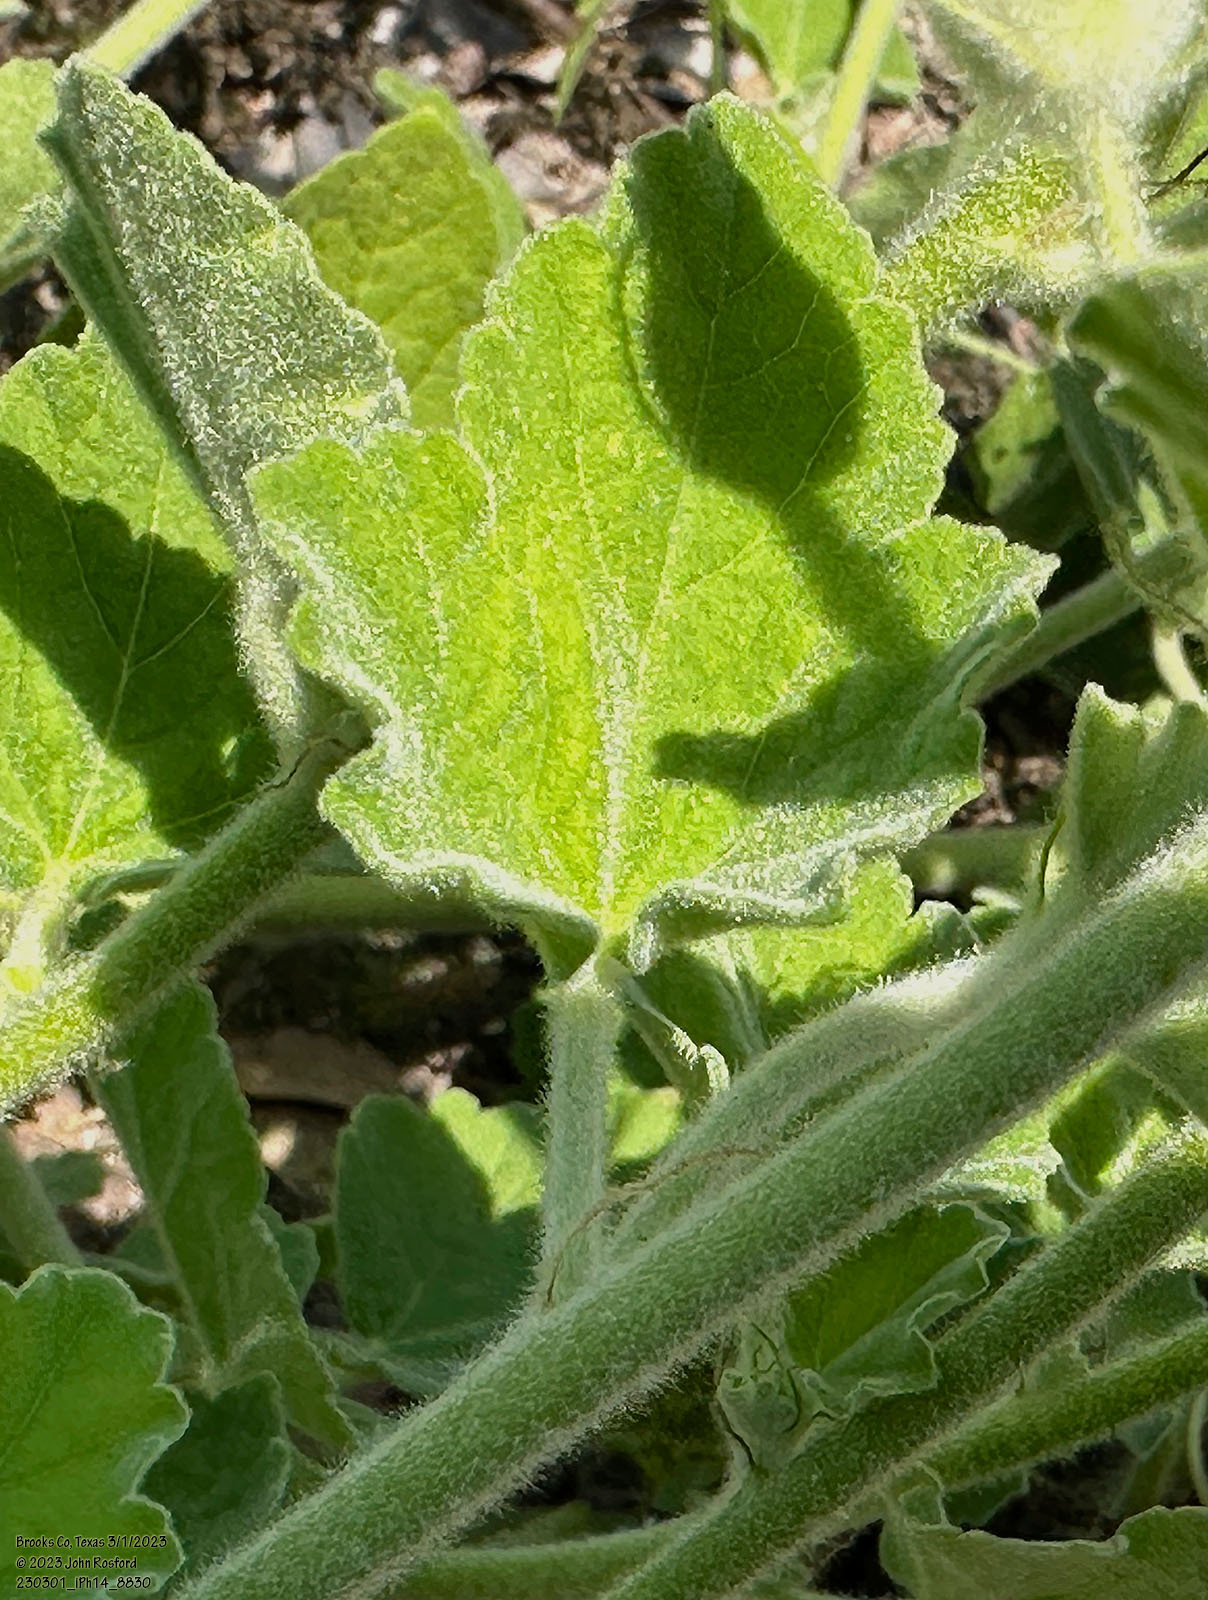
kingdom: Plantae
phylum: Tracheophyta
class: Magnoliopsida
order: Malvales
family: Malvaceae
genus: Sphaeralcea
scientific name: Sphaeralcea lindheimeri
